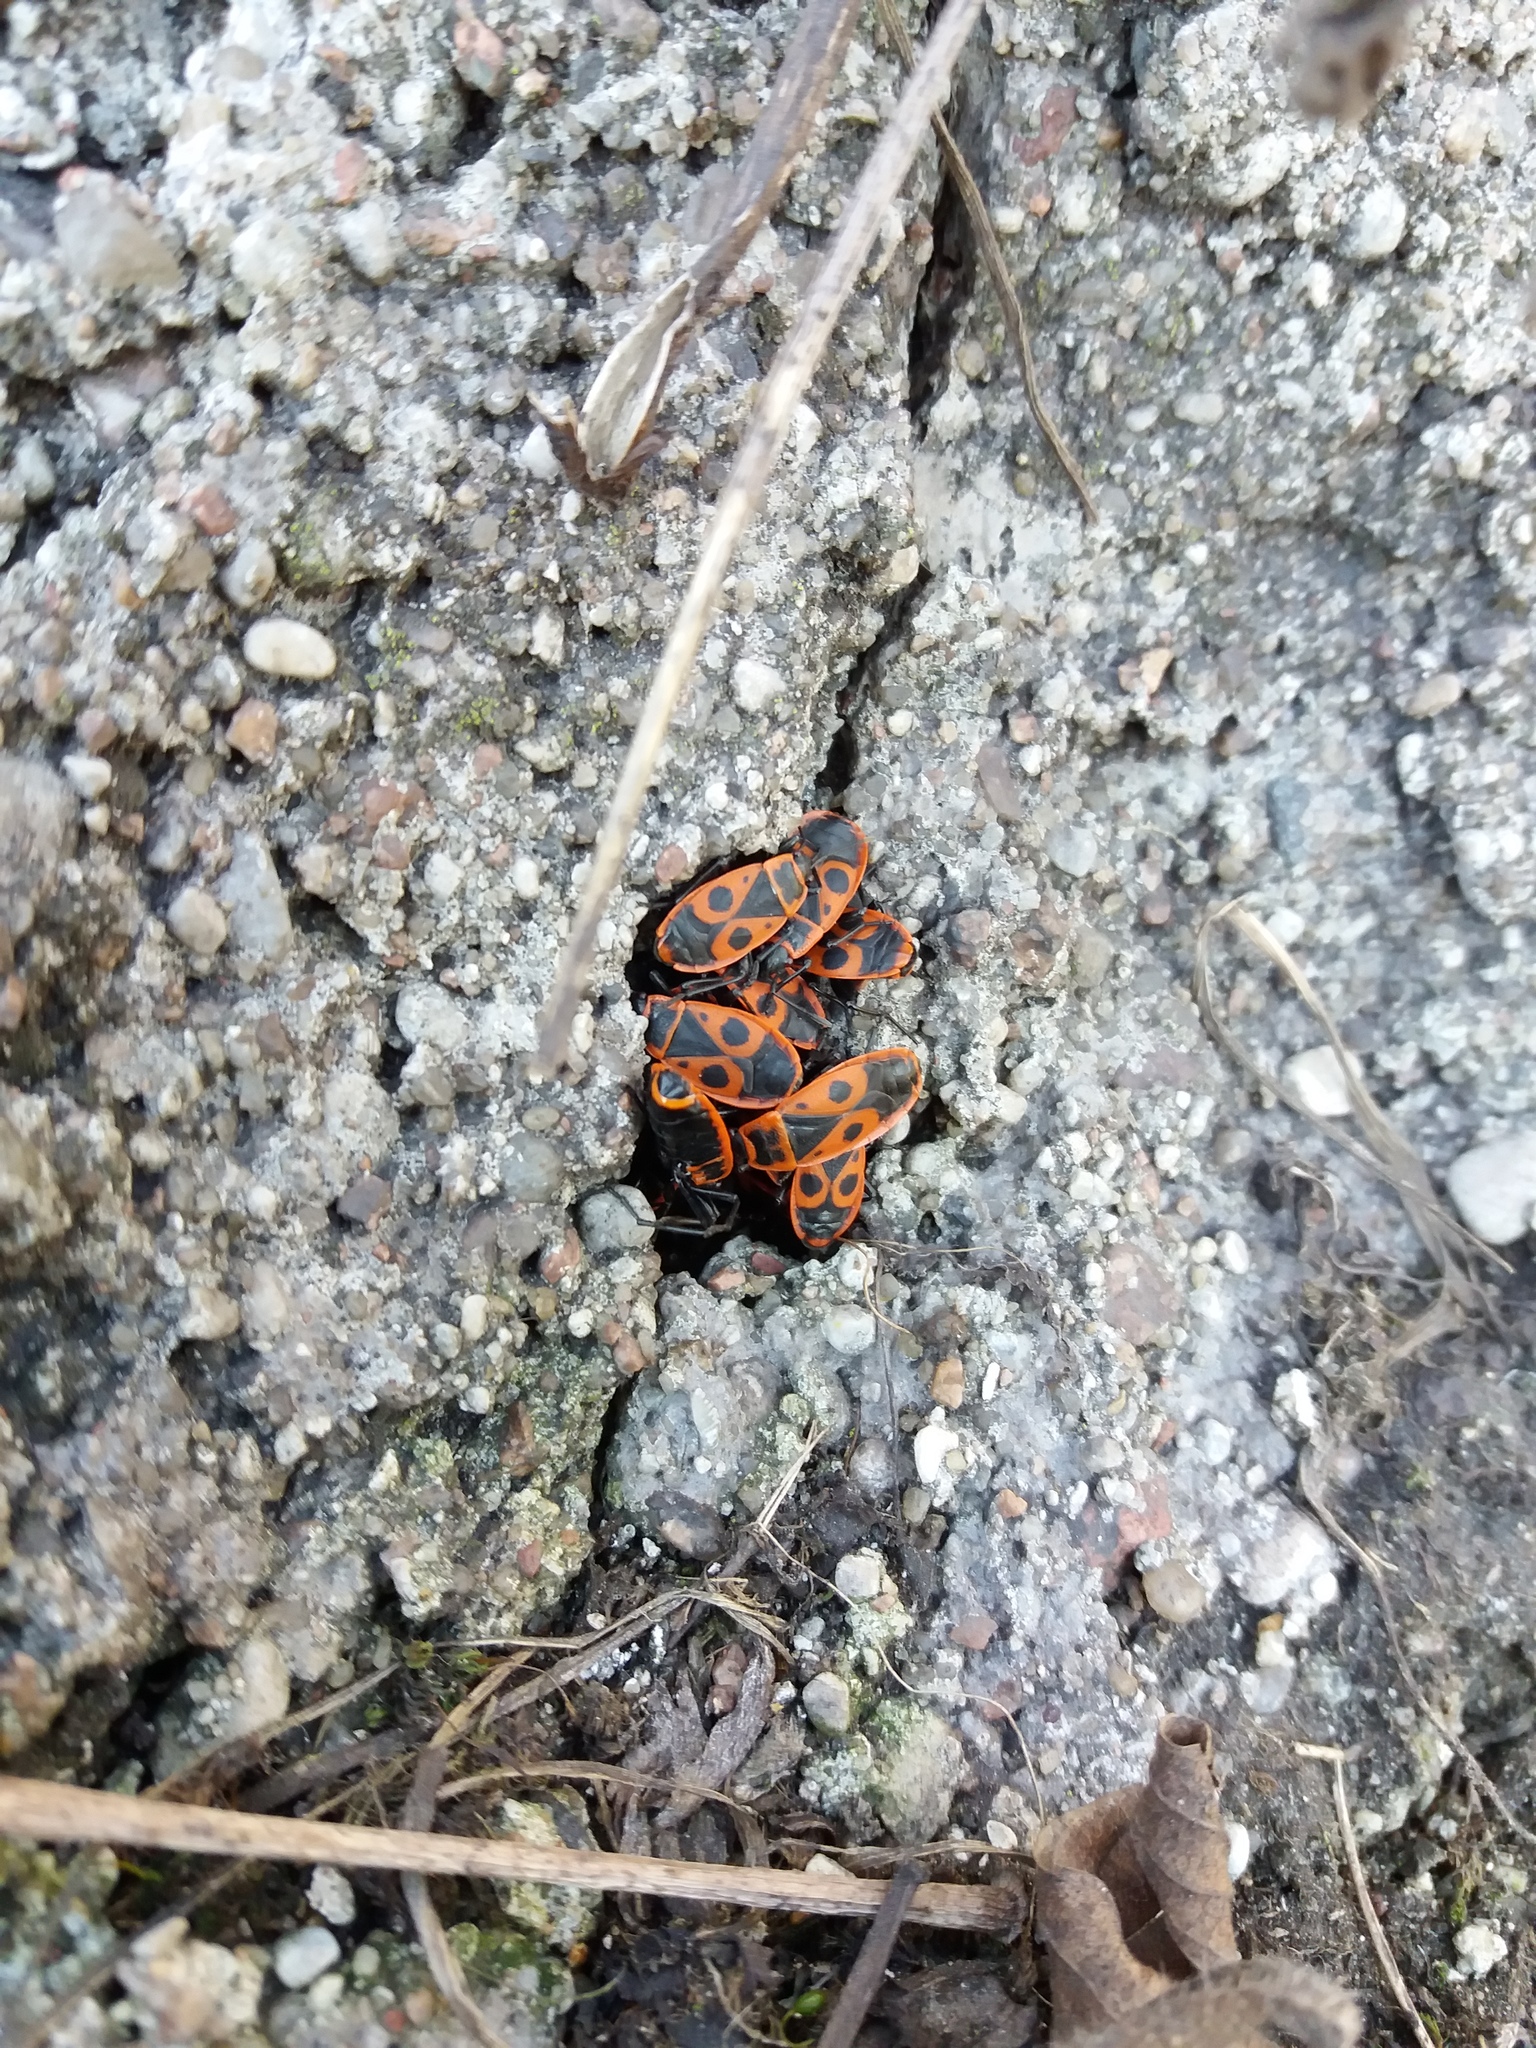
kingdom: Animalia
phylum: Arthropoda
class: Insecta
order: Hemiptera
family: Pyrrhocoridae
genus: Pyrrhocoris
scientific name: Pyrrhocoris apterus
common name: Firebug
